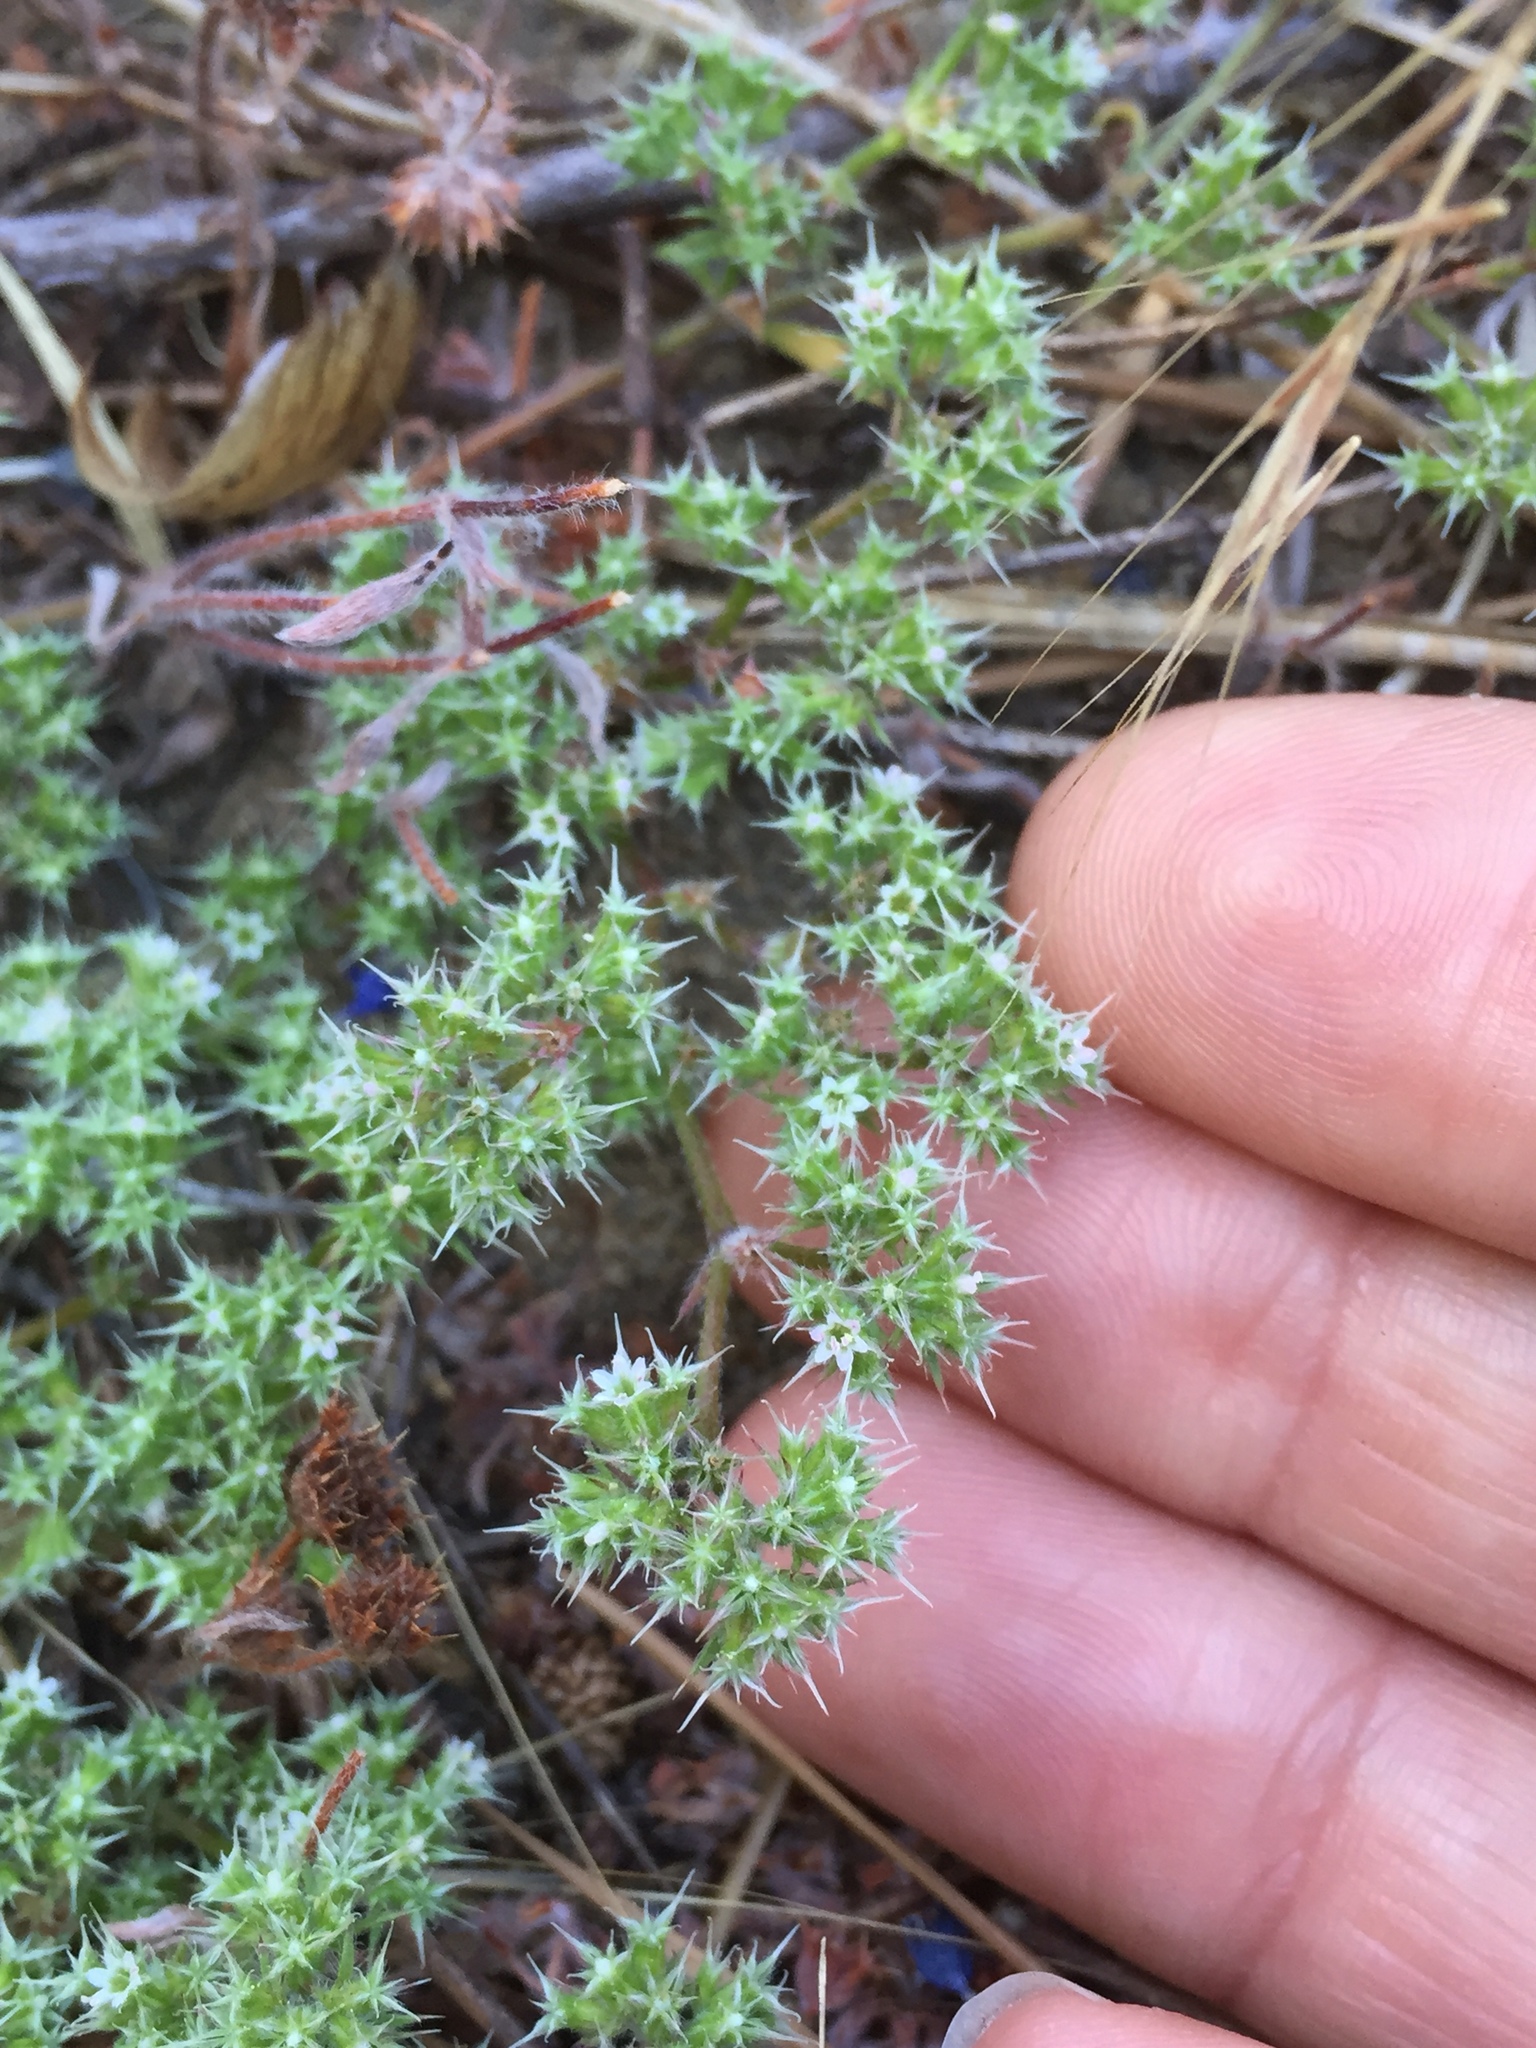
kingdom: Plantae
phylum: Tracheophyta
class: Magnoliopsida
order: Caryophyllales
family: Polygonaceae
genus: Chorizanthe
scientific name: Chorizanthe cuspidata
